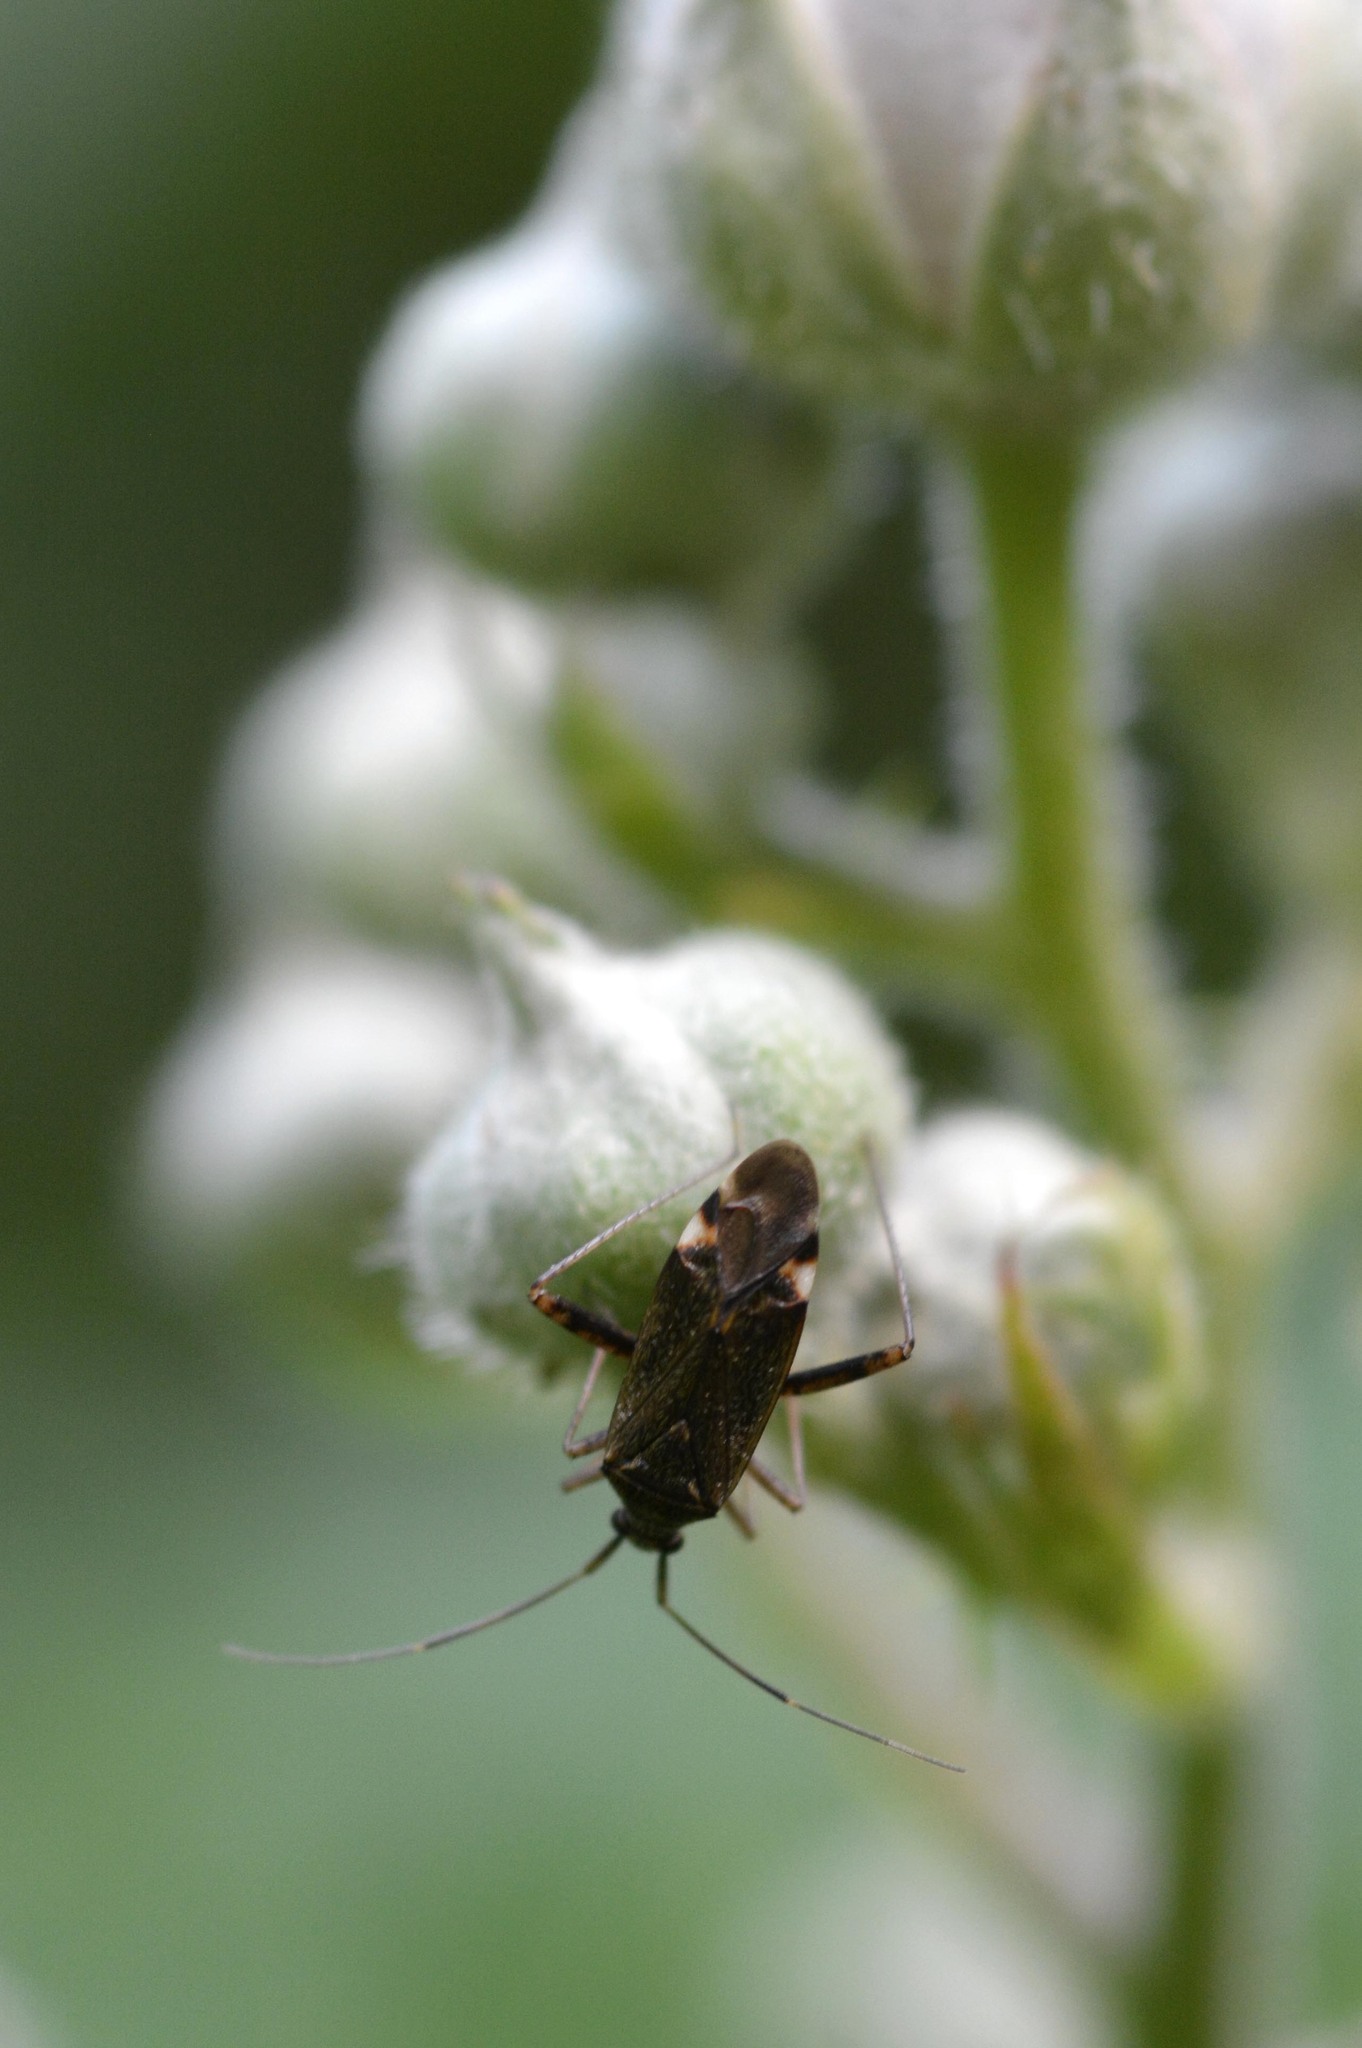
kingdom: Animalia
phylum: Arthropoda
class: Insecta
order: Hemiptera
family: Miridae
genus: Closterotomus
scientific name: Closterotomus fulvomaculatus
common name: Spotted plant bug
